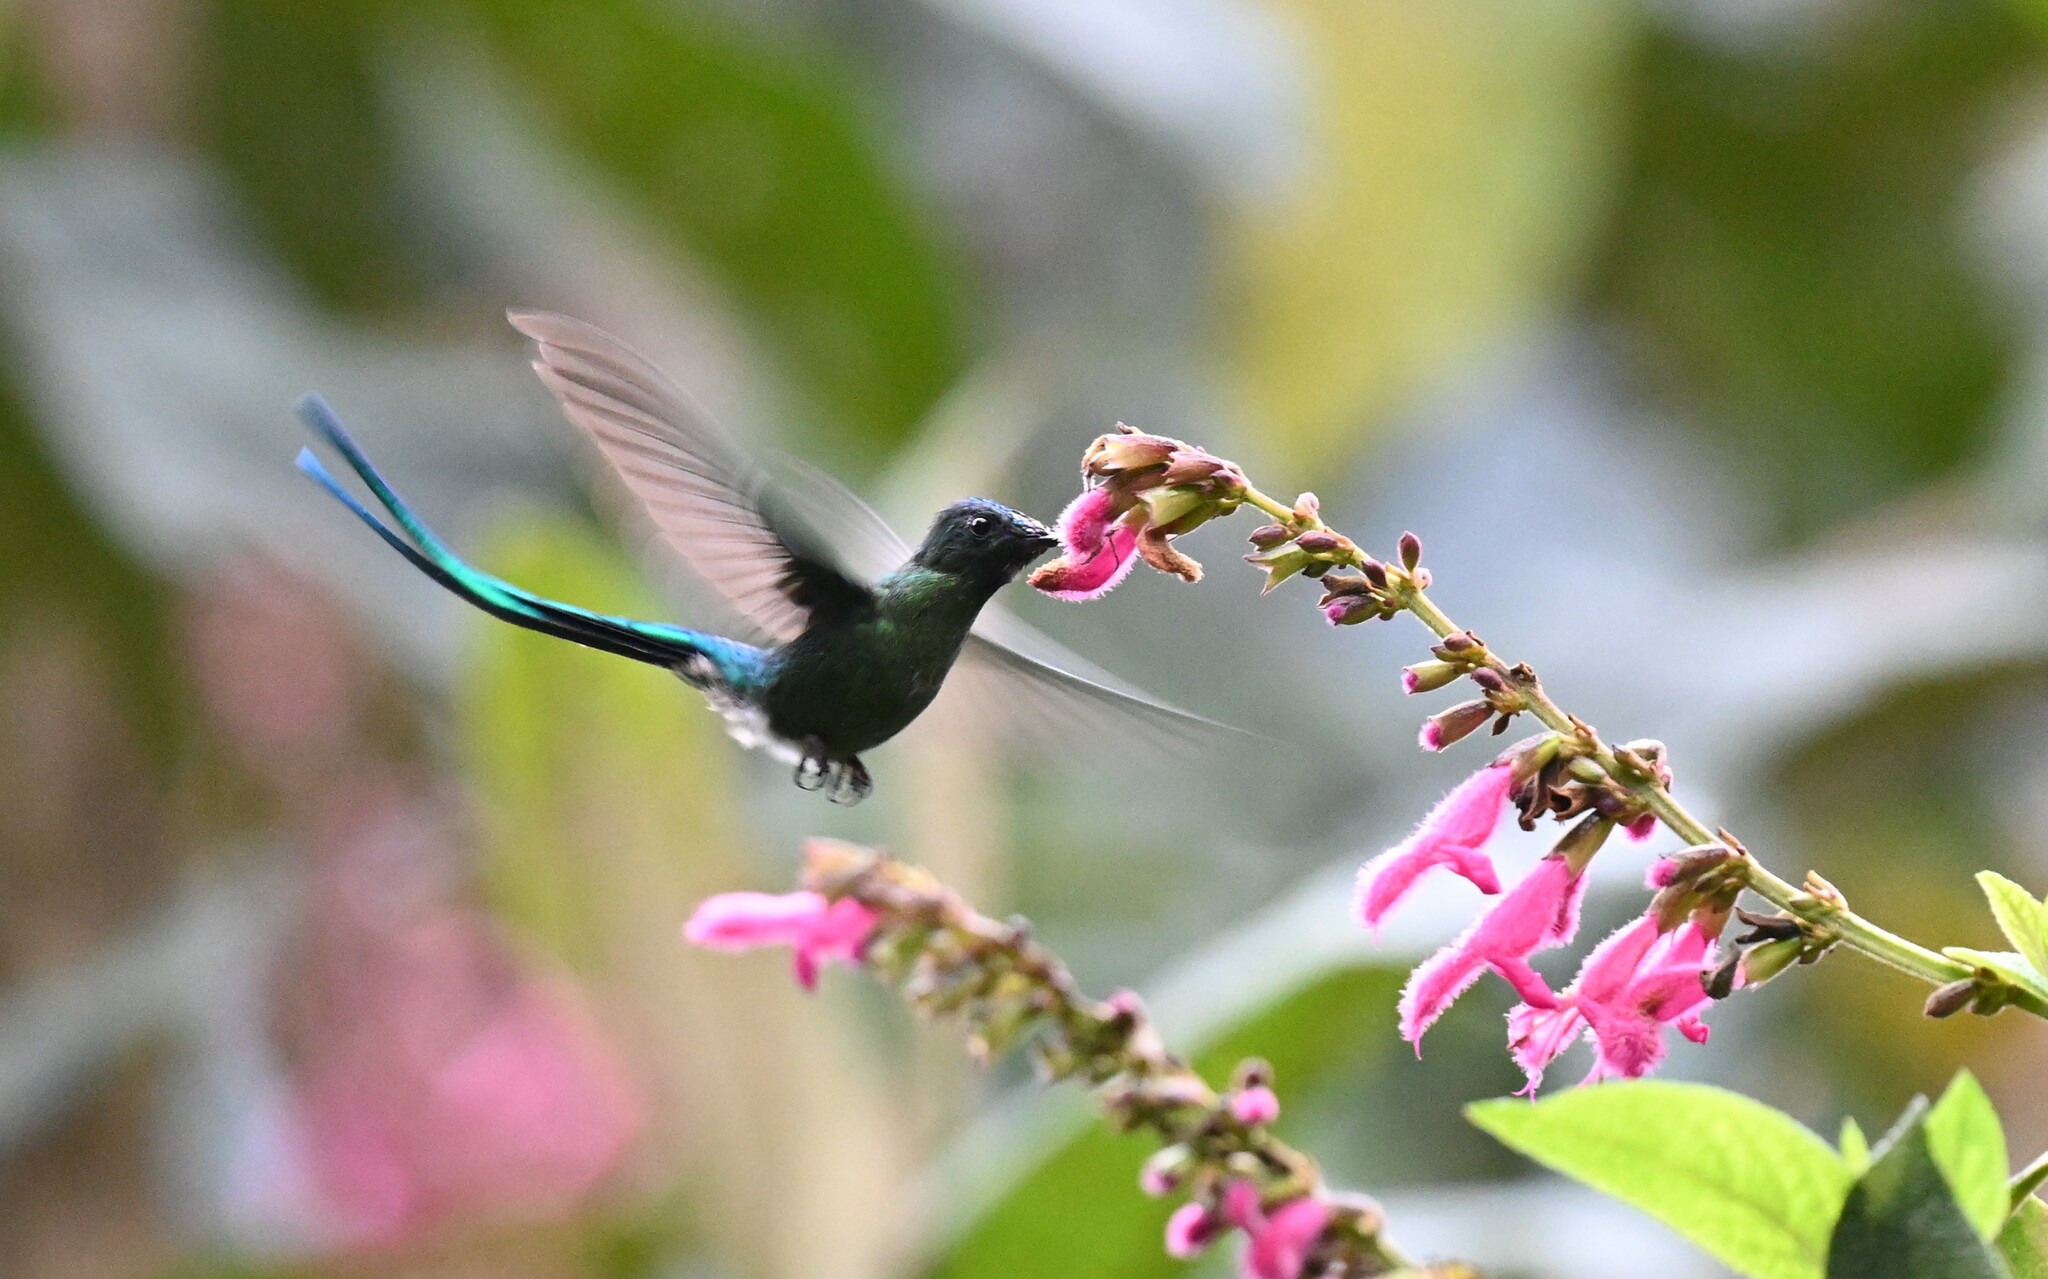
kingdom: Animalia
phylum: Chordata
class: Aves
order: Apodiformes
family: Trochilidae
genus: Aglaiocercus
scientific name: Aglaiocercus kingii
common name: Long-tailed sylph
